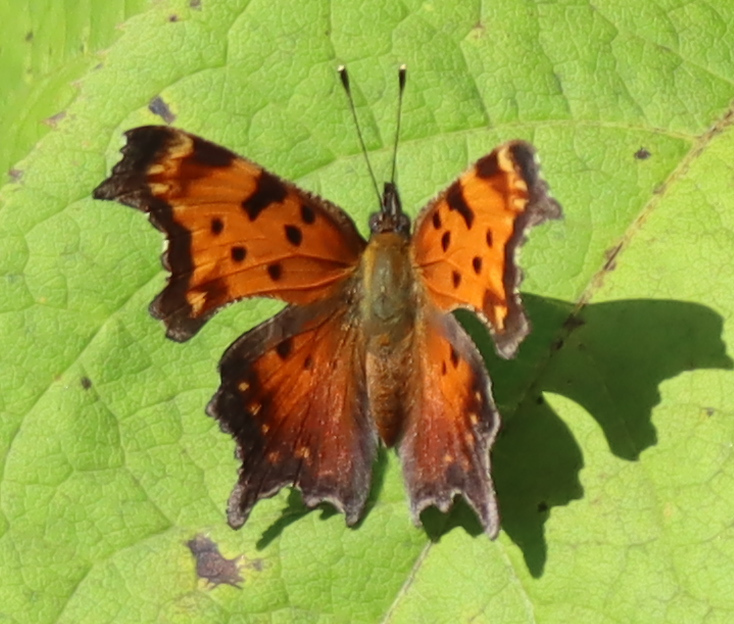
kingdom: Animalia
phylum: Arthropoda
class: Insecta
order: Lepidoptera
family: Nymphalidae
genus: Polygonia
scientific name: Polygonia progne
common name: Gray comma
